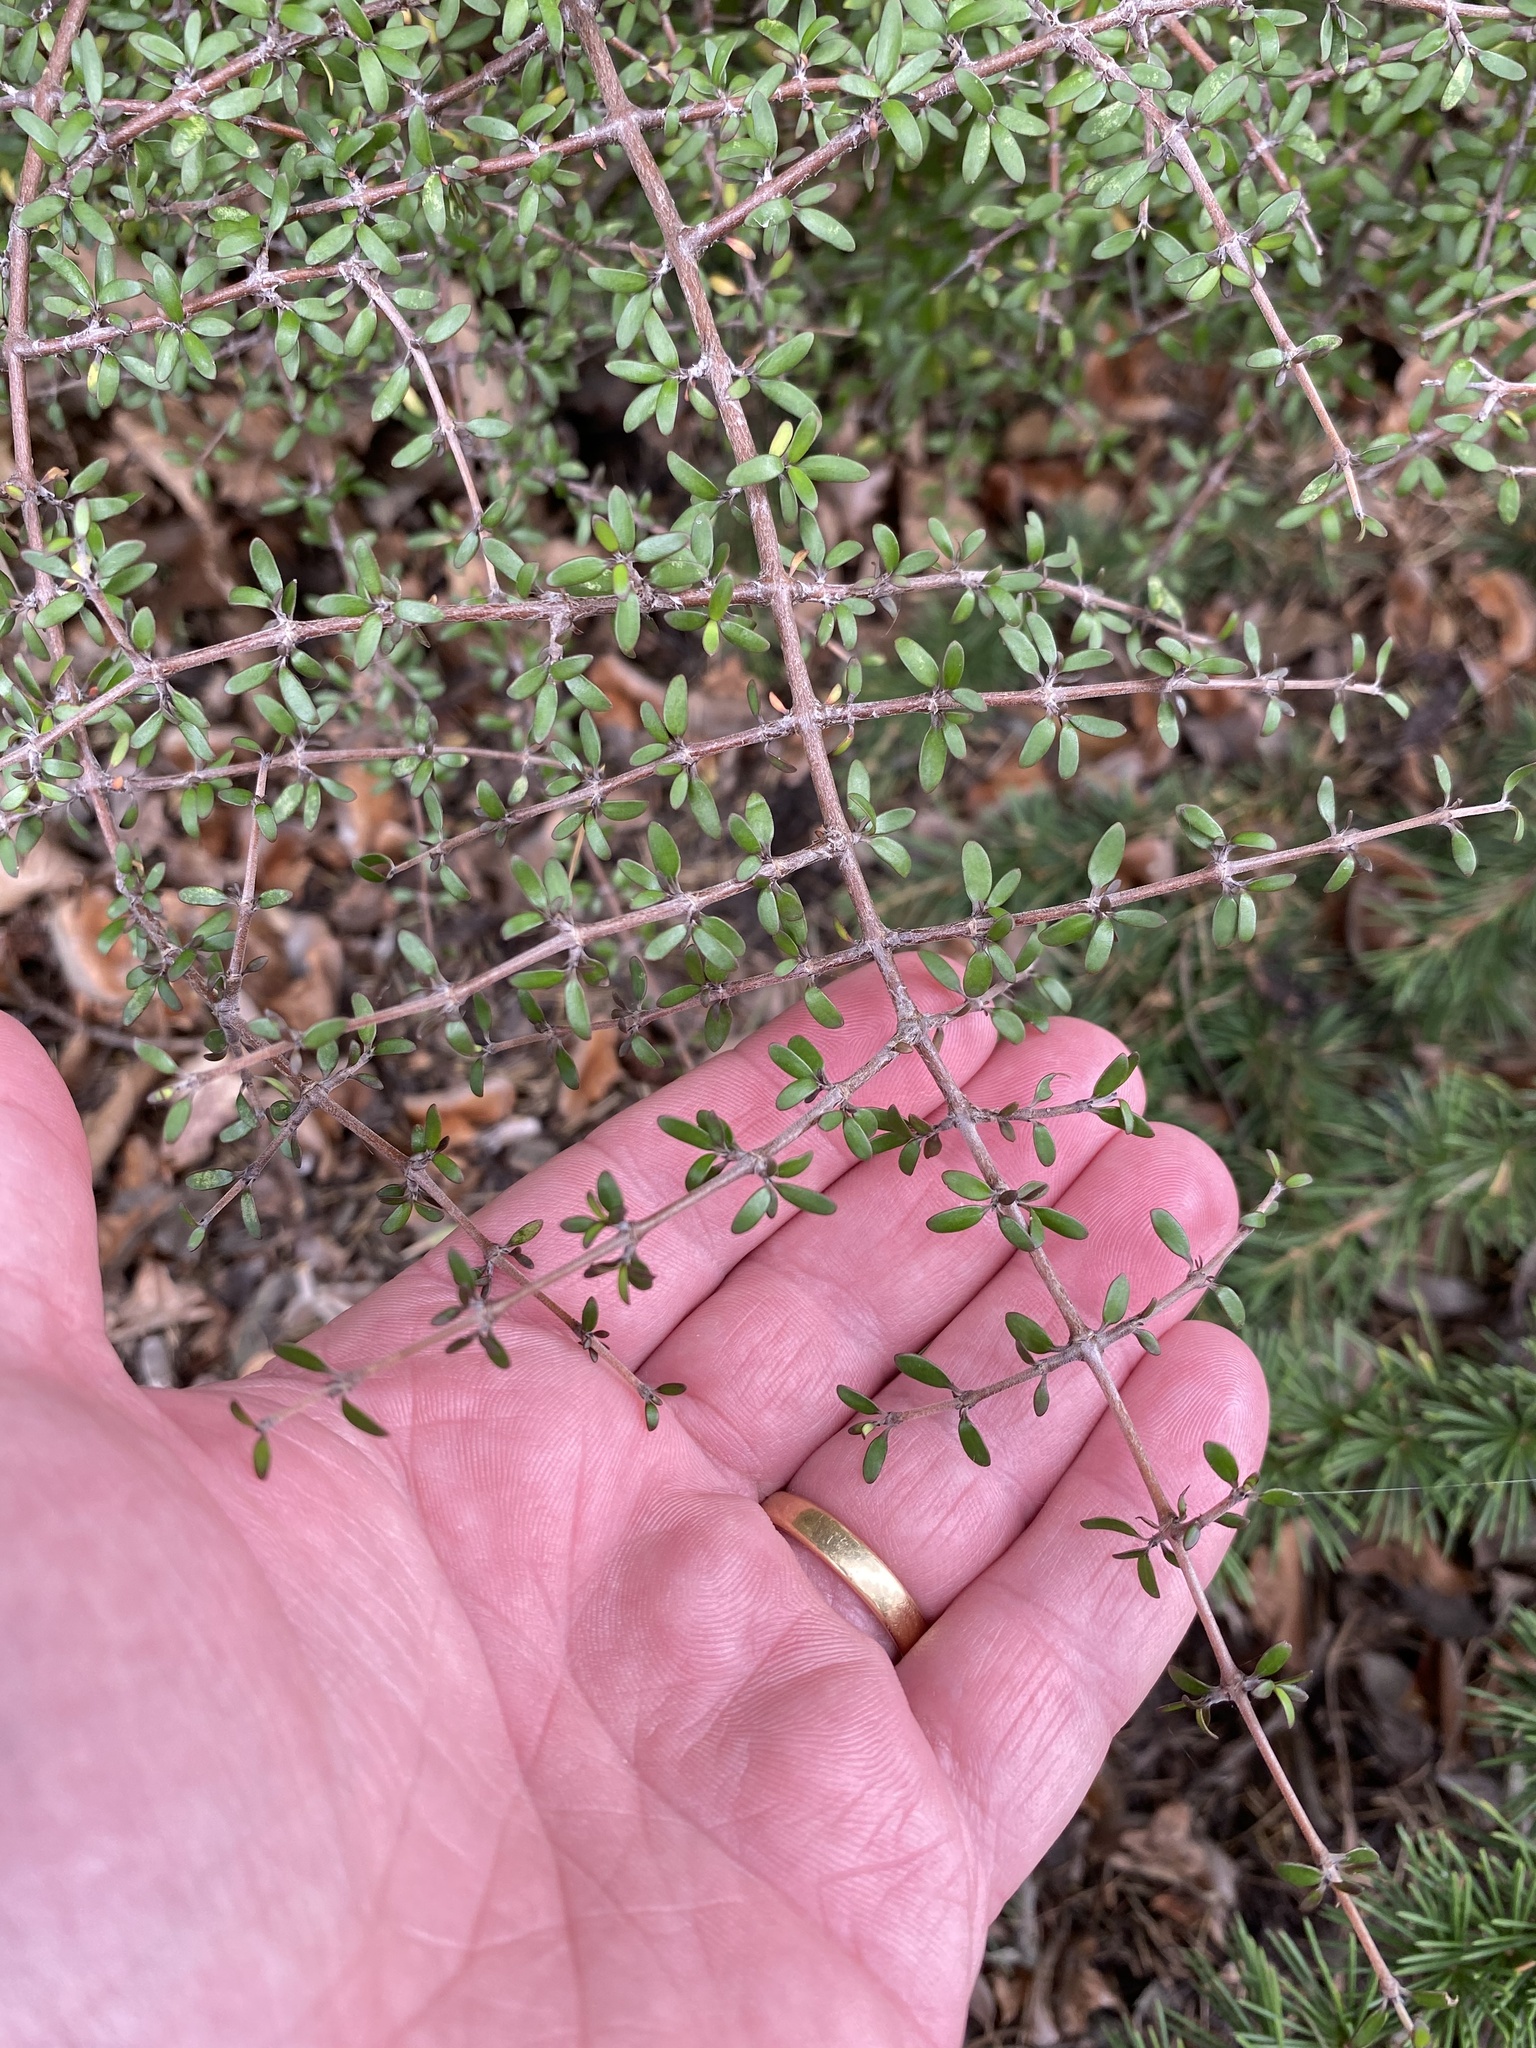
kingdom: Plantae
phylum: Tracheophyta
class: Magnoliopsida
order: Gentianales
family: Rubiaceae
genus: Coprosma
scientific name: Coprosma propinqua
